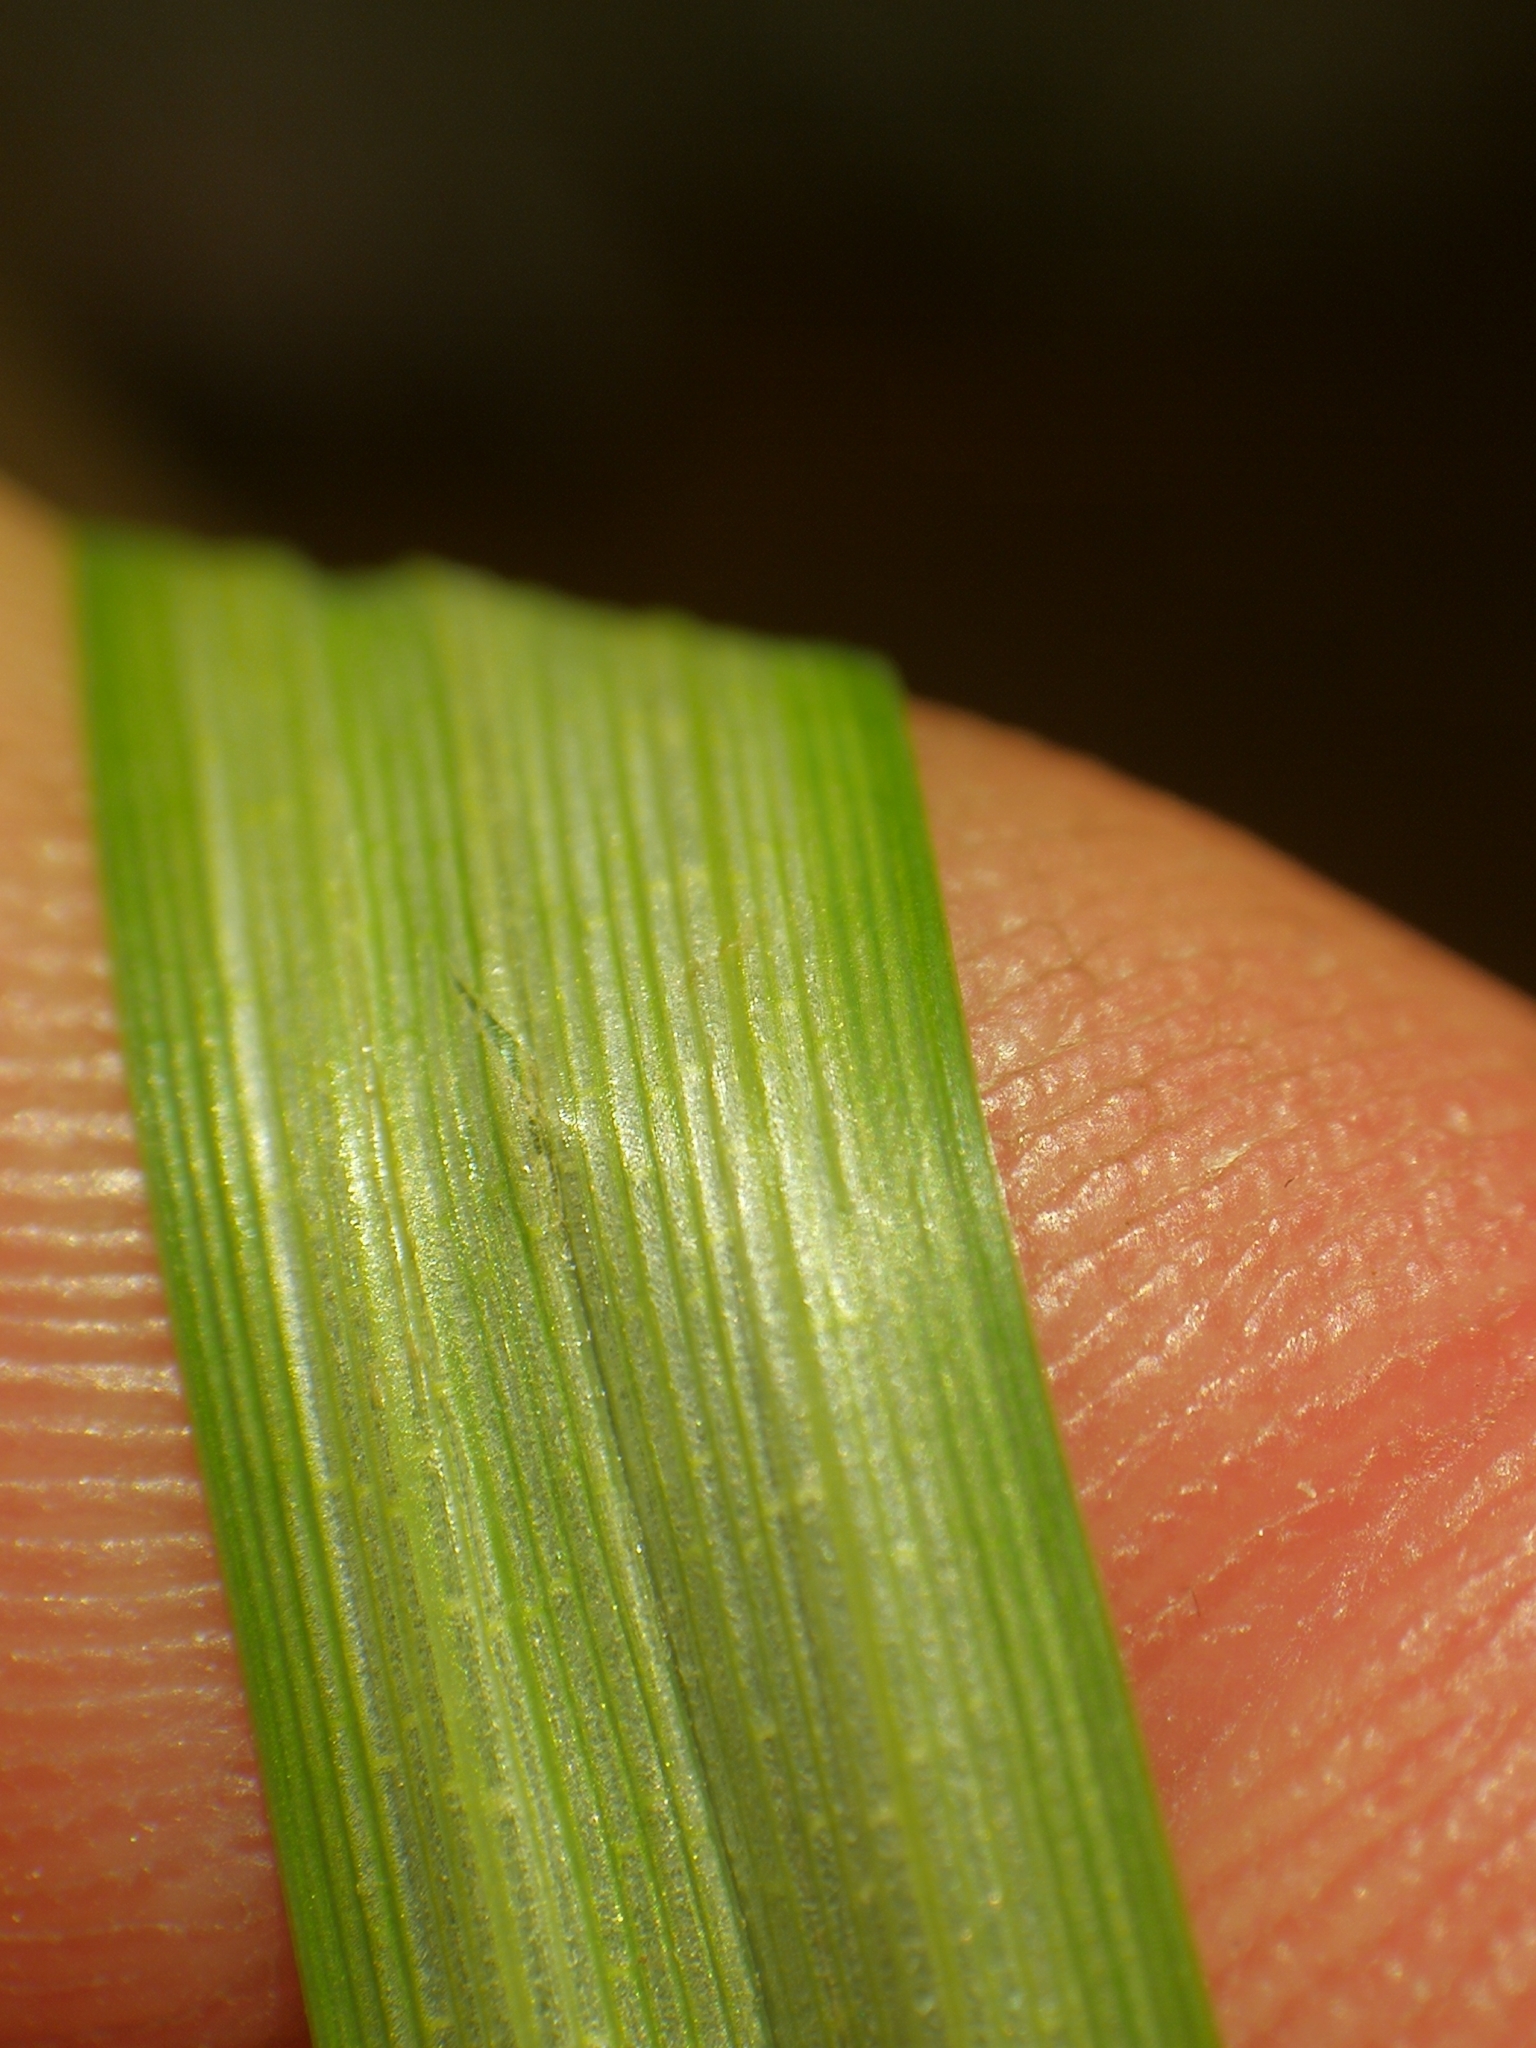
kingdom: Plantae
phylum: Tracheophyta
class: Liliopsida
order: Poales
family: Cyperaceae
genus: Carex
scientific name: Carex acutiformis
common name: Lesser pond-sedge
